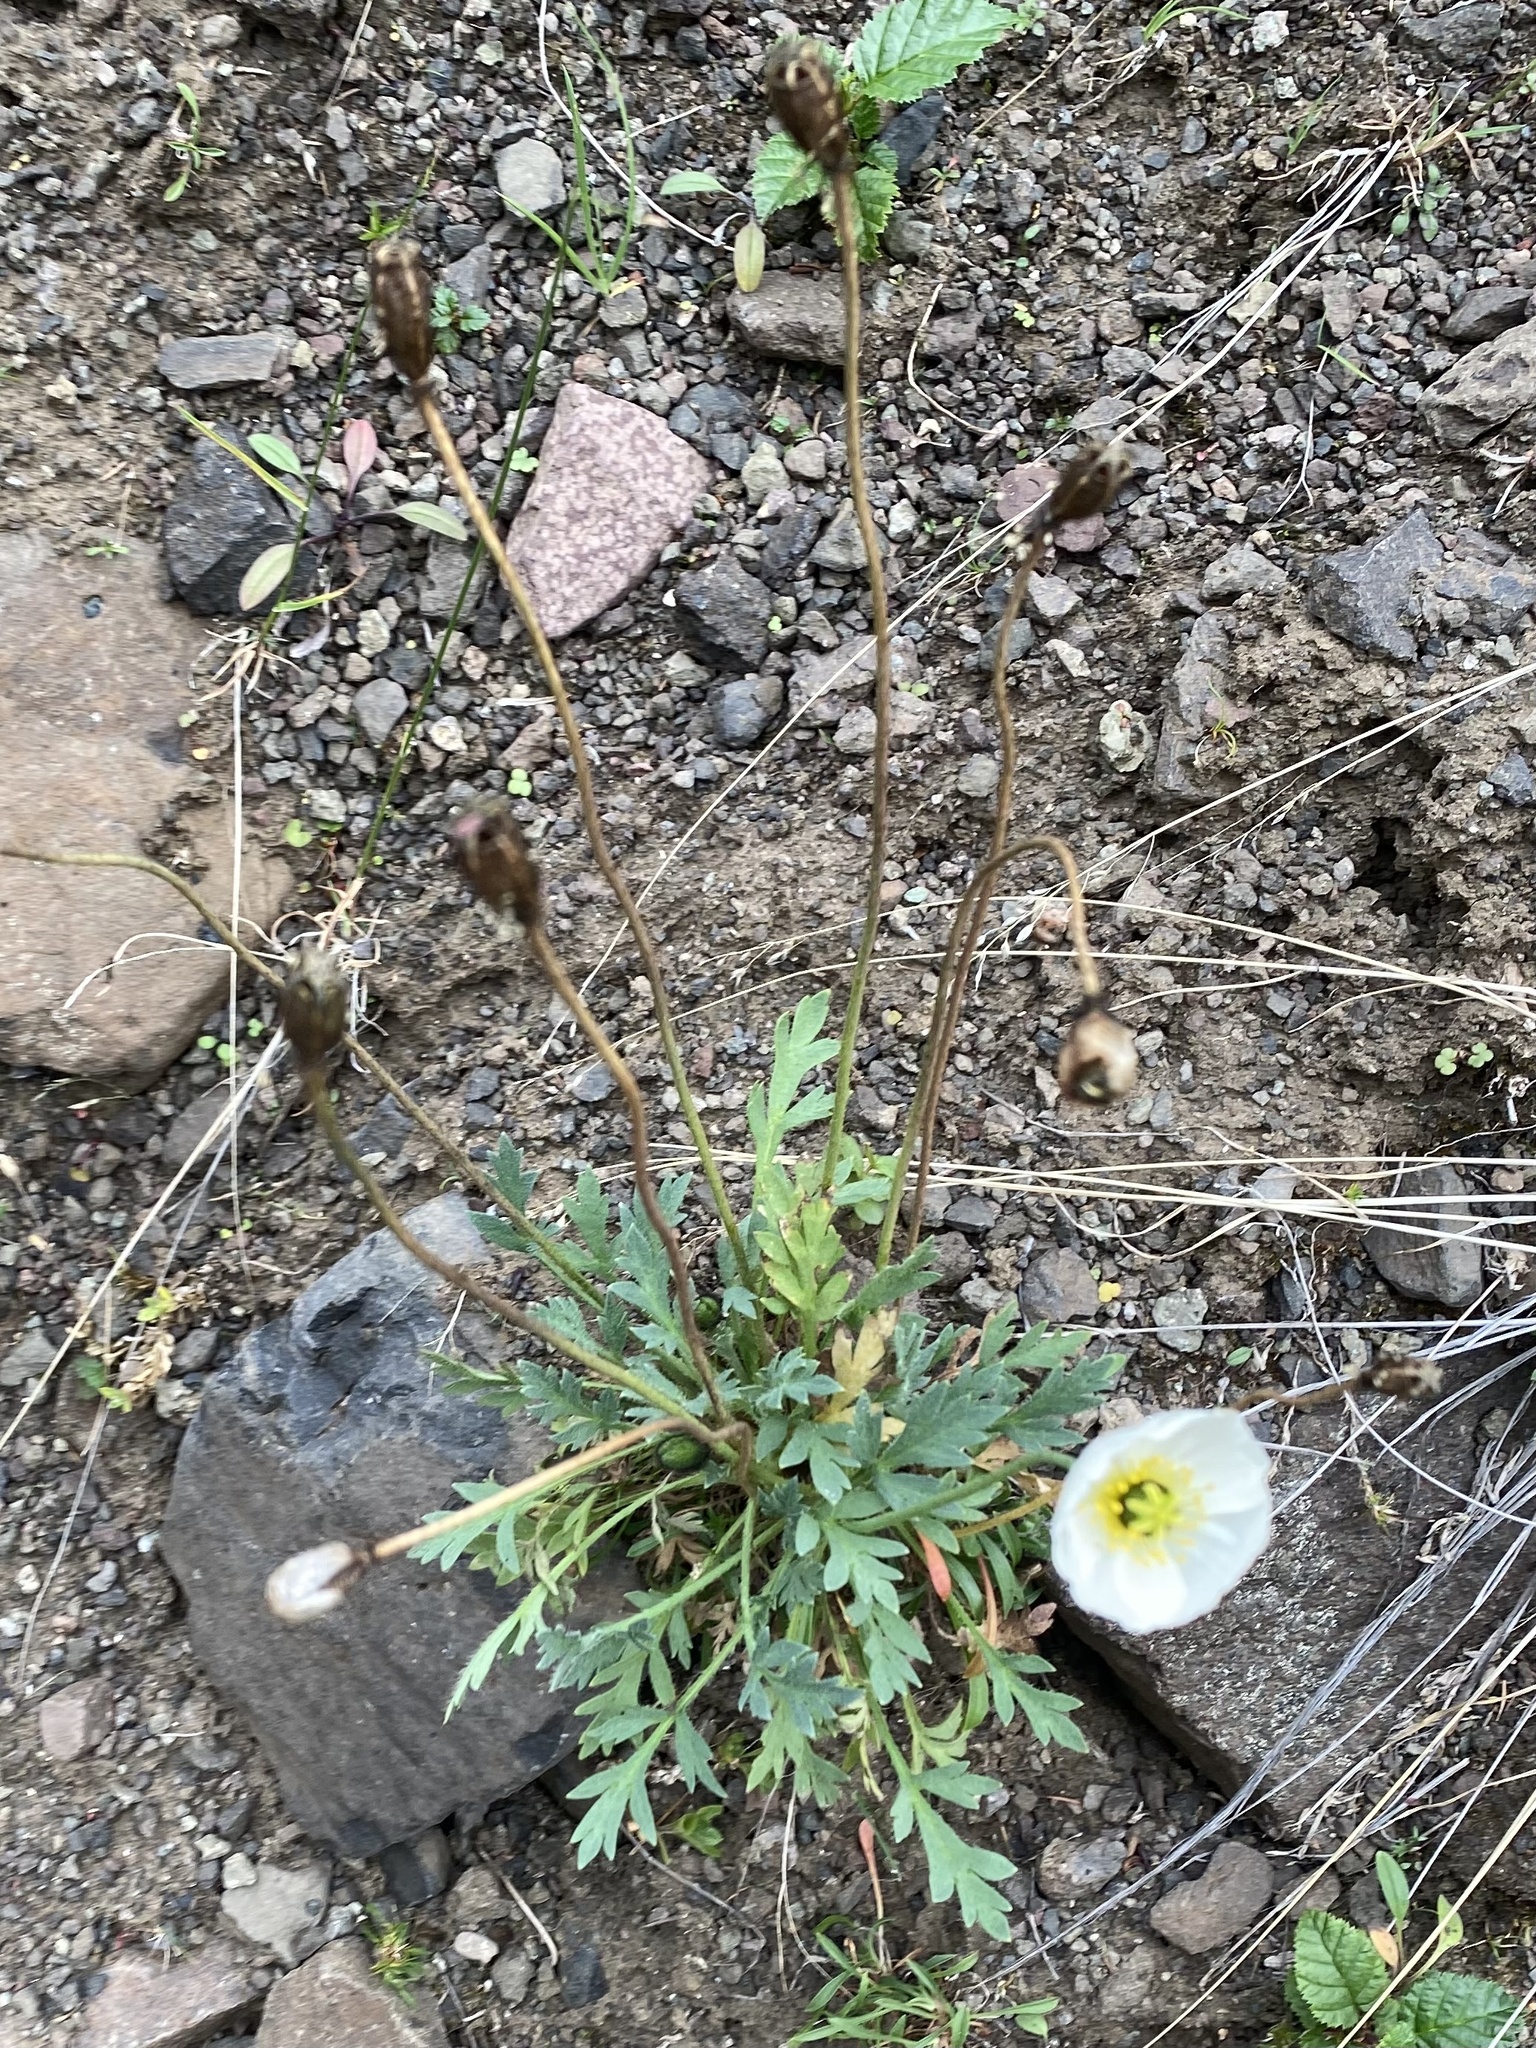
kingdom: Plantae
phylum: Tracheophyta
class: Magnoliopsida
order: Ranunculales
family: Papaveraceae
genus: Papaver
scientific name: Papaver angustifolium
